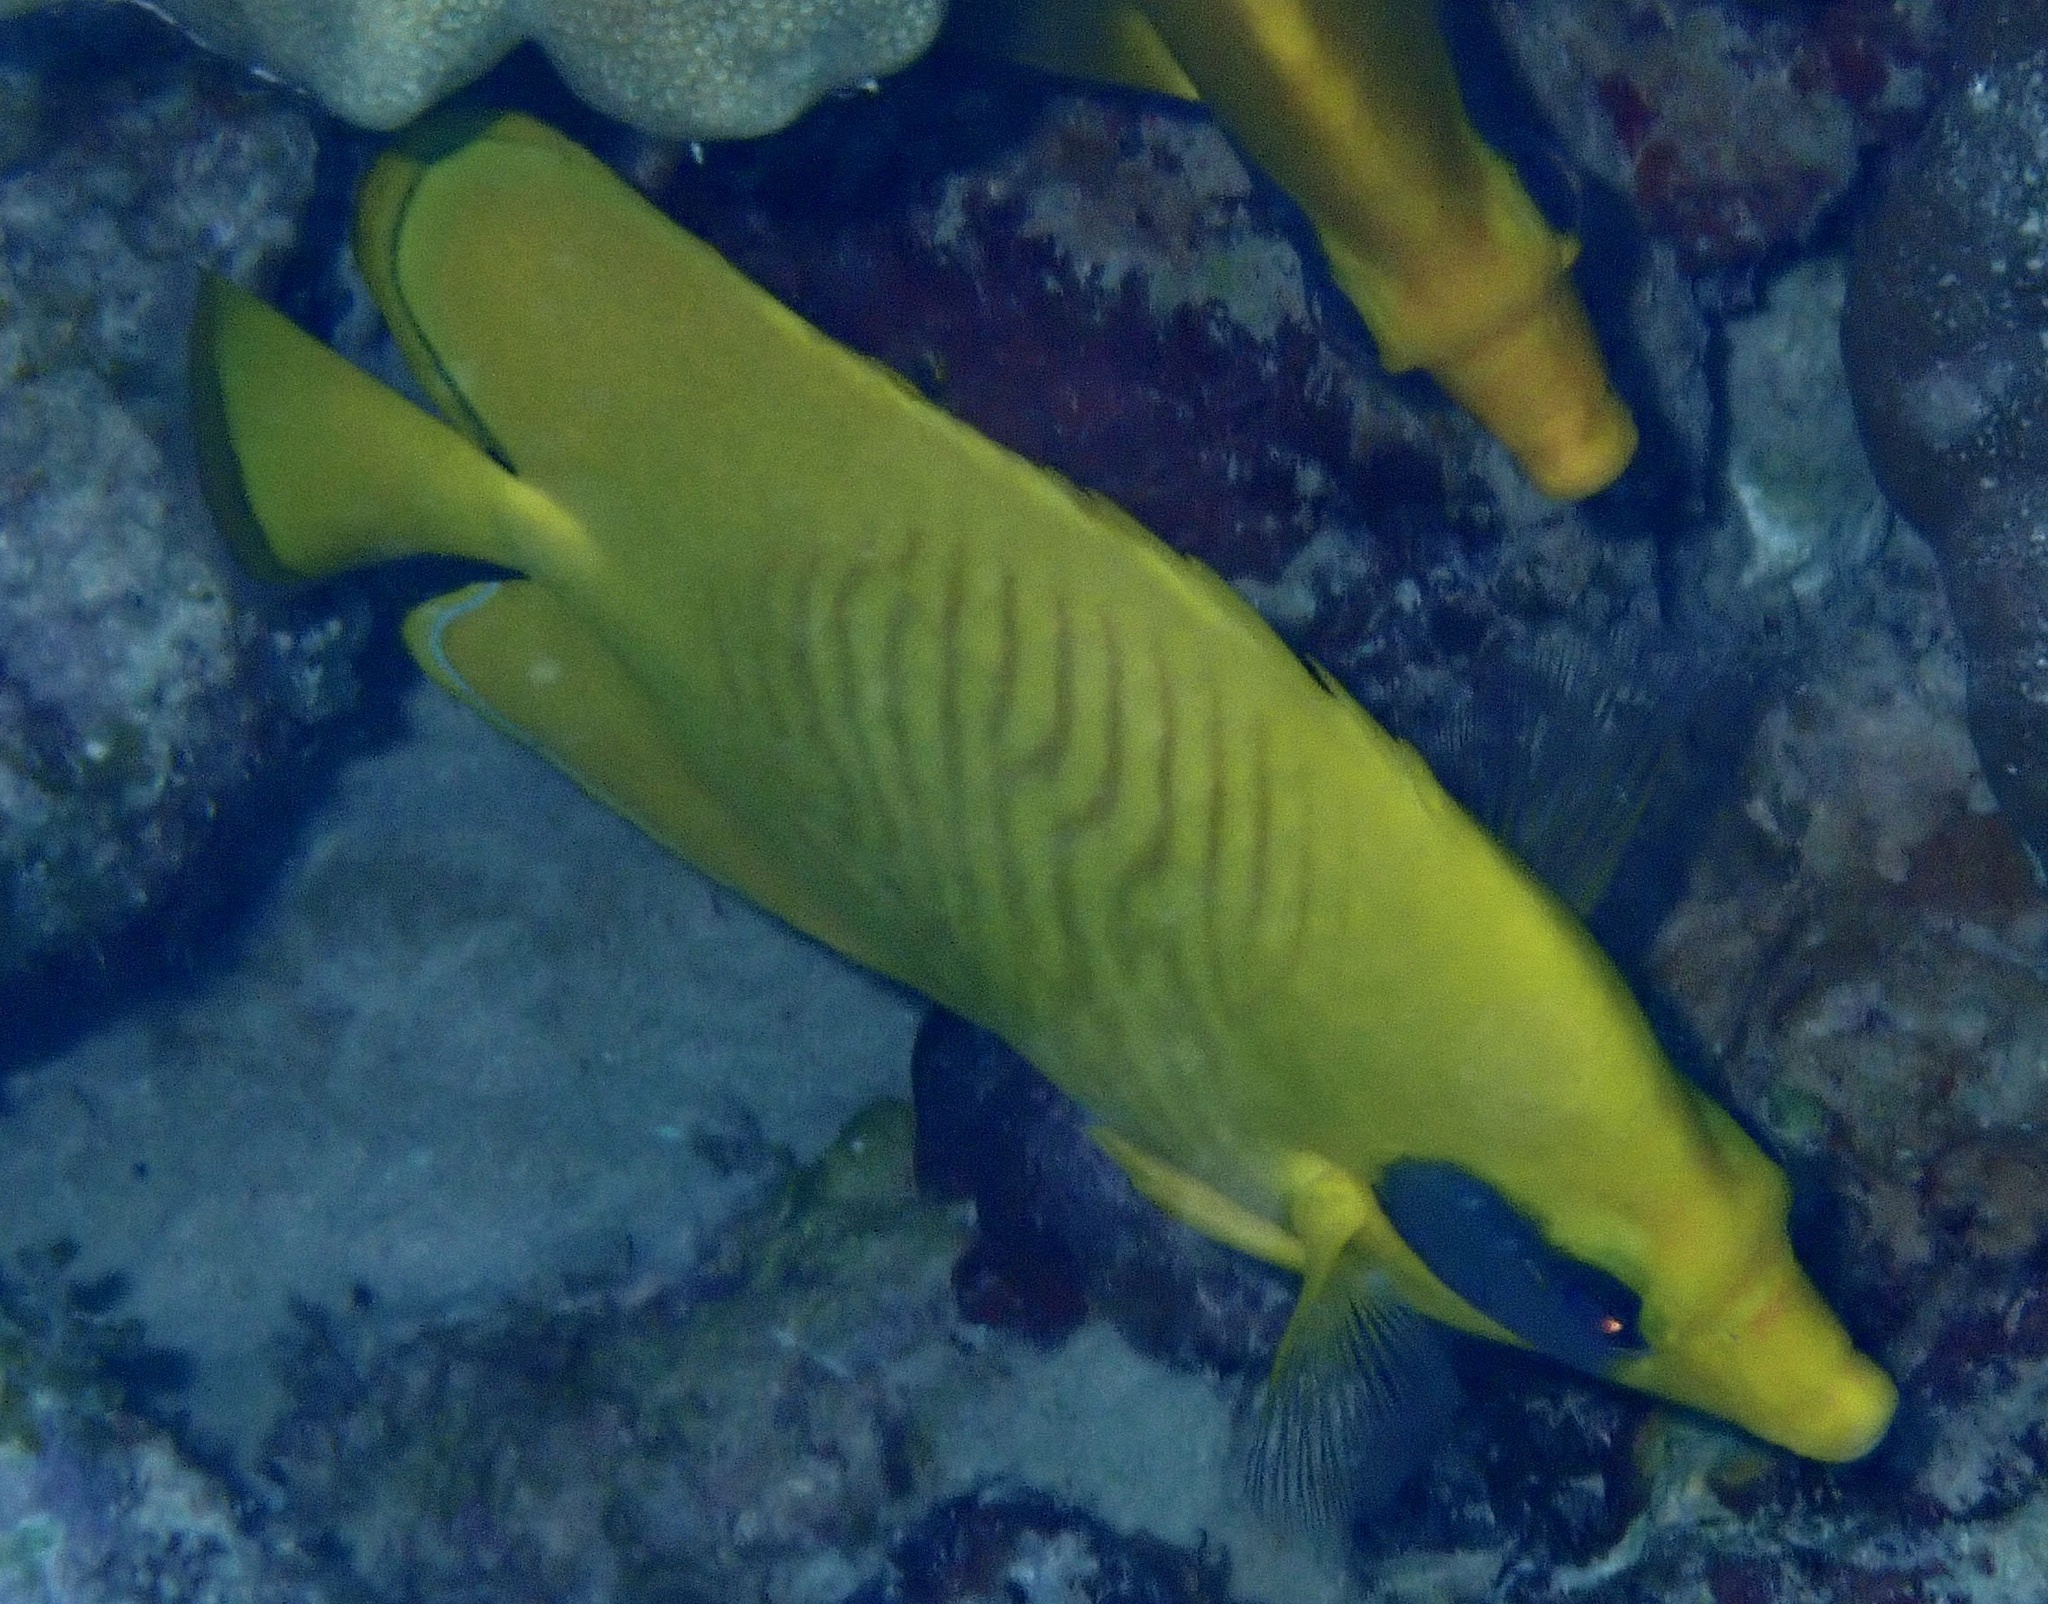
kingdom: Animalia
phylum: Chordata
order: Perciformes
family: Chaetodontidae
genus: Chaetodon
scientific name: Chaetodon semilarvatus
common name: Golden butterflyfish
